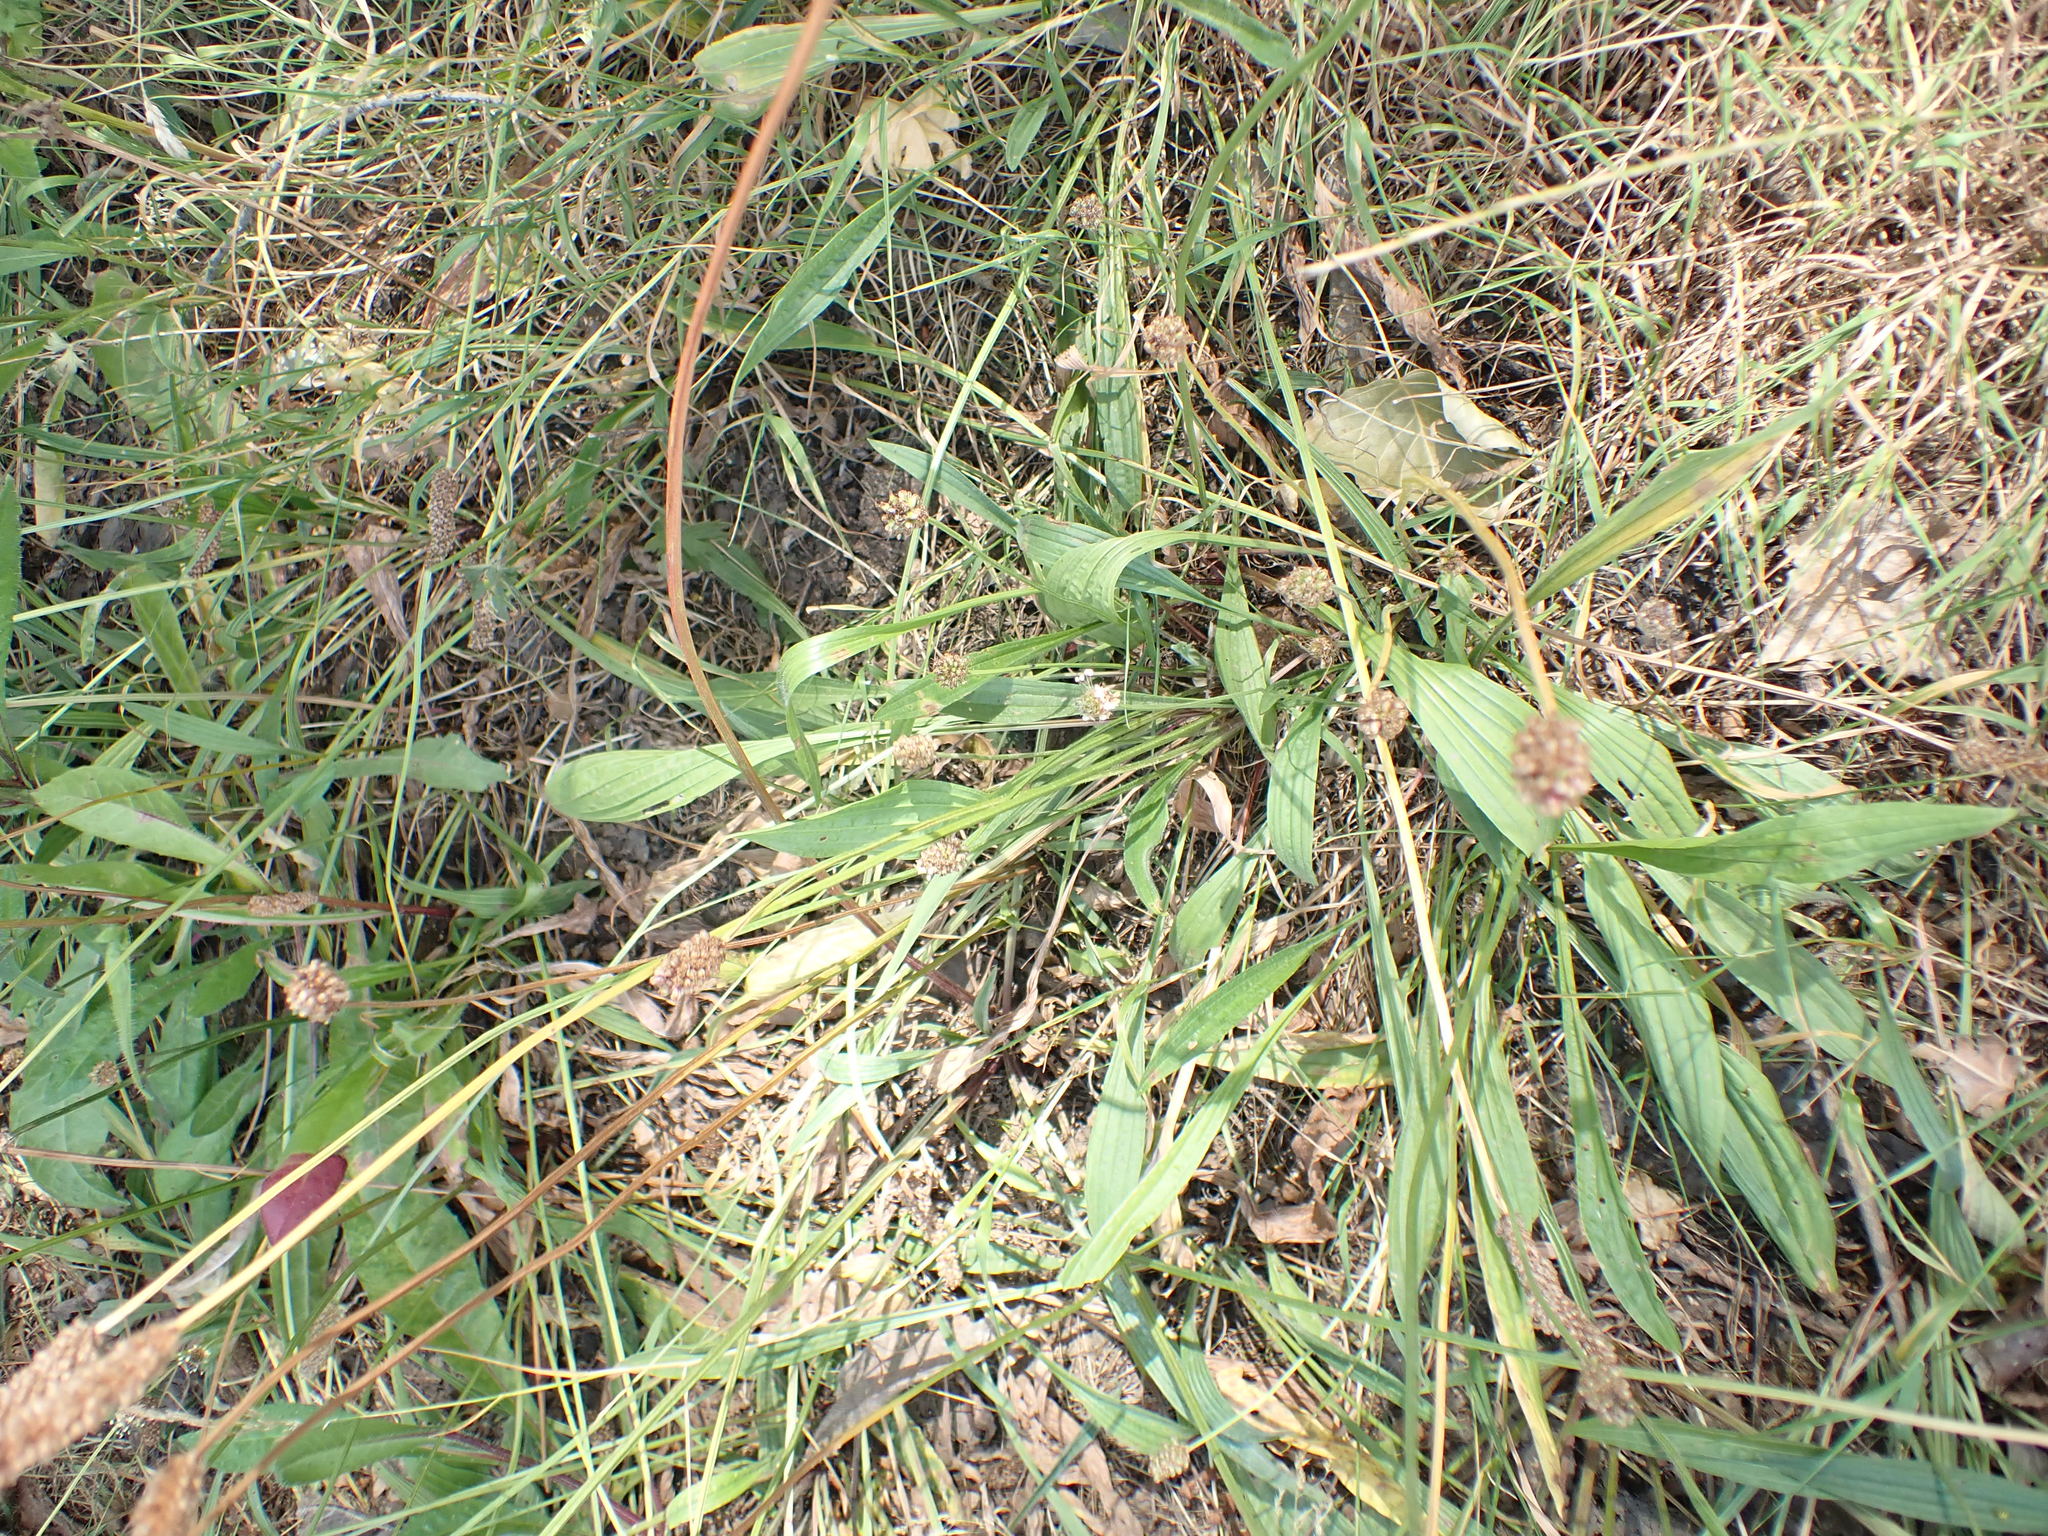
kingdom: Plantae
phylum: Tracheophyta
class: Magnoliopsida
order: Lamiales
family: Plantaginaceae
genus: Plantago
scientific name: Plantago lanceolata
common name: Ribwort plantain
